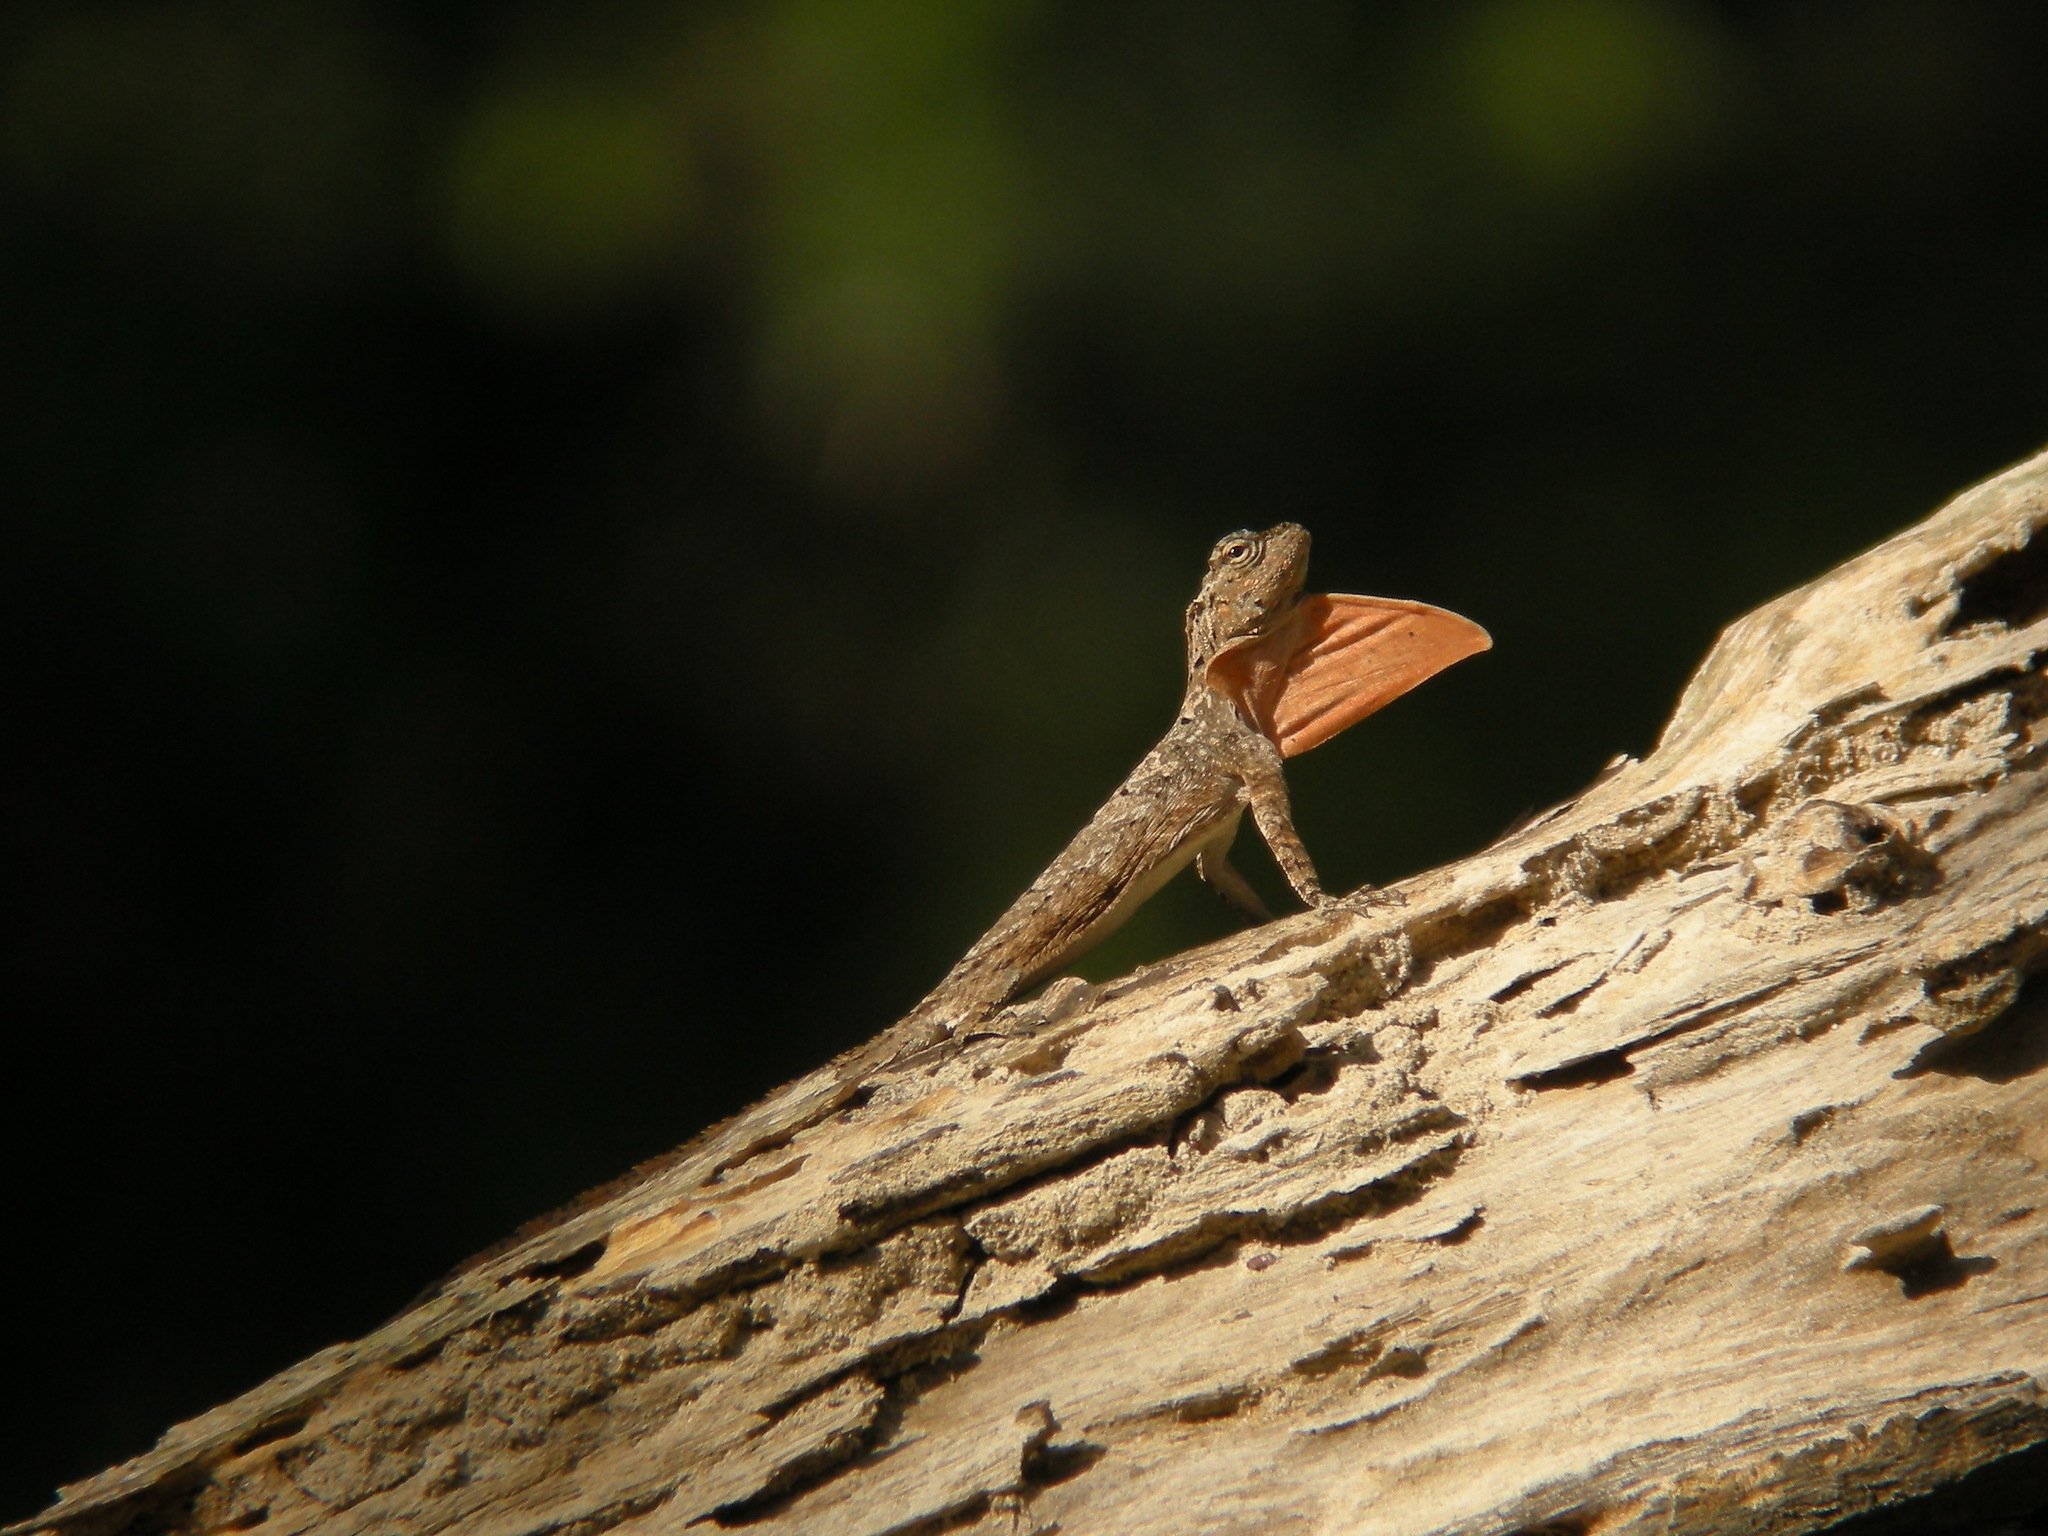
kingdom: Animalia
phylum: Chordata
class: Squamata
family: Agamidae
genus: Draco
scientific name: Draco abbreviatus
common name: Singapore flying dragon
